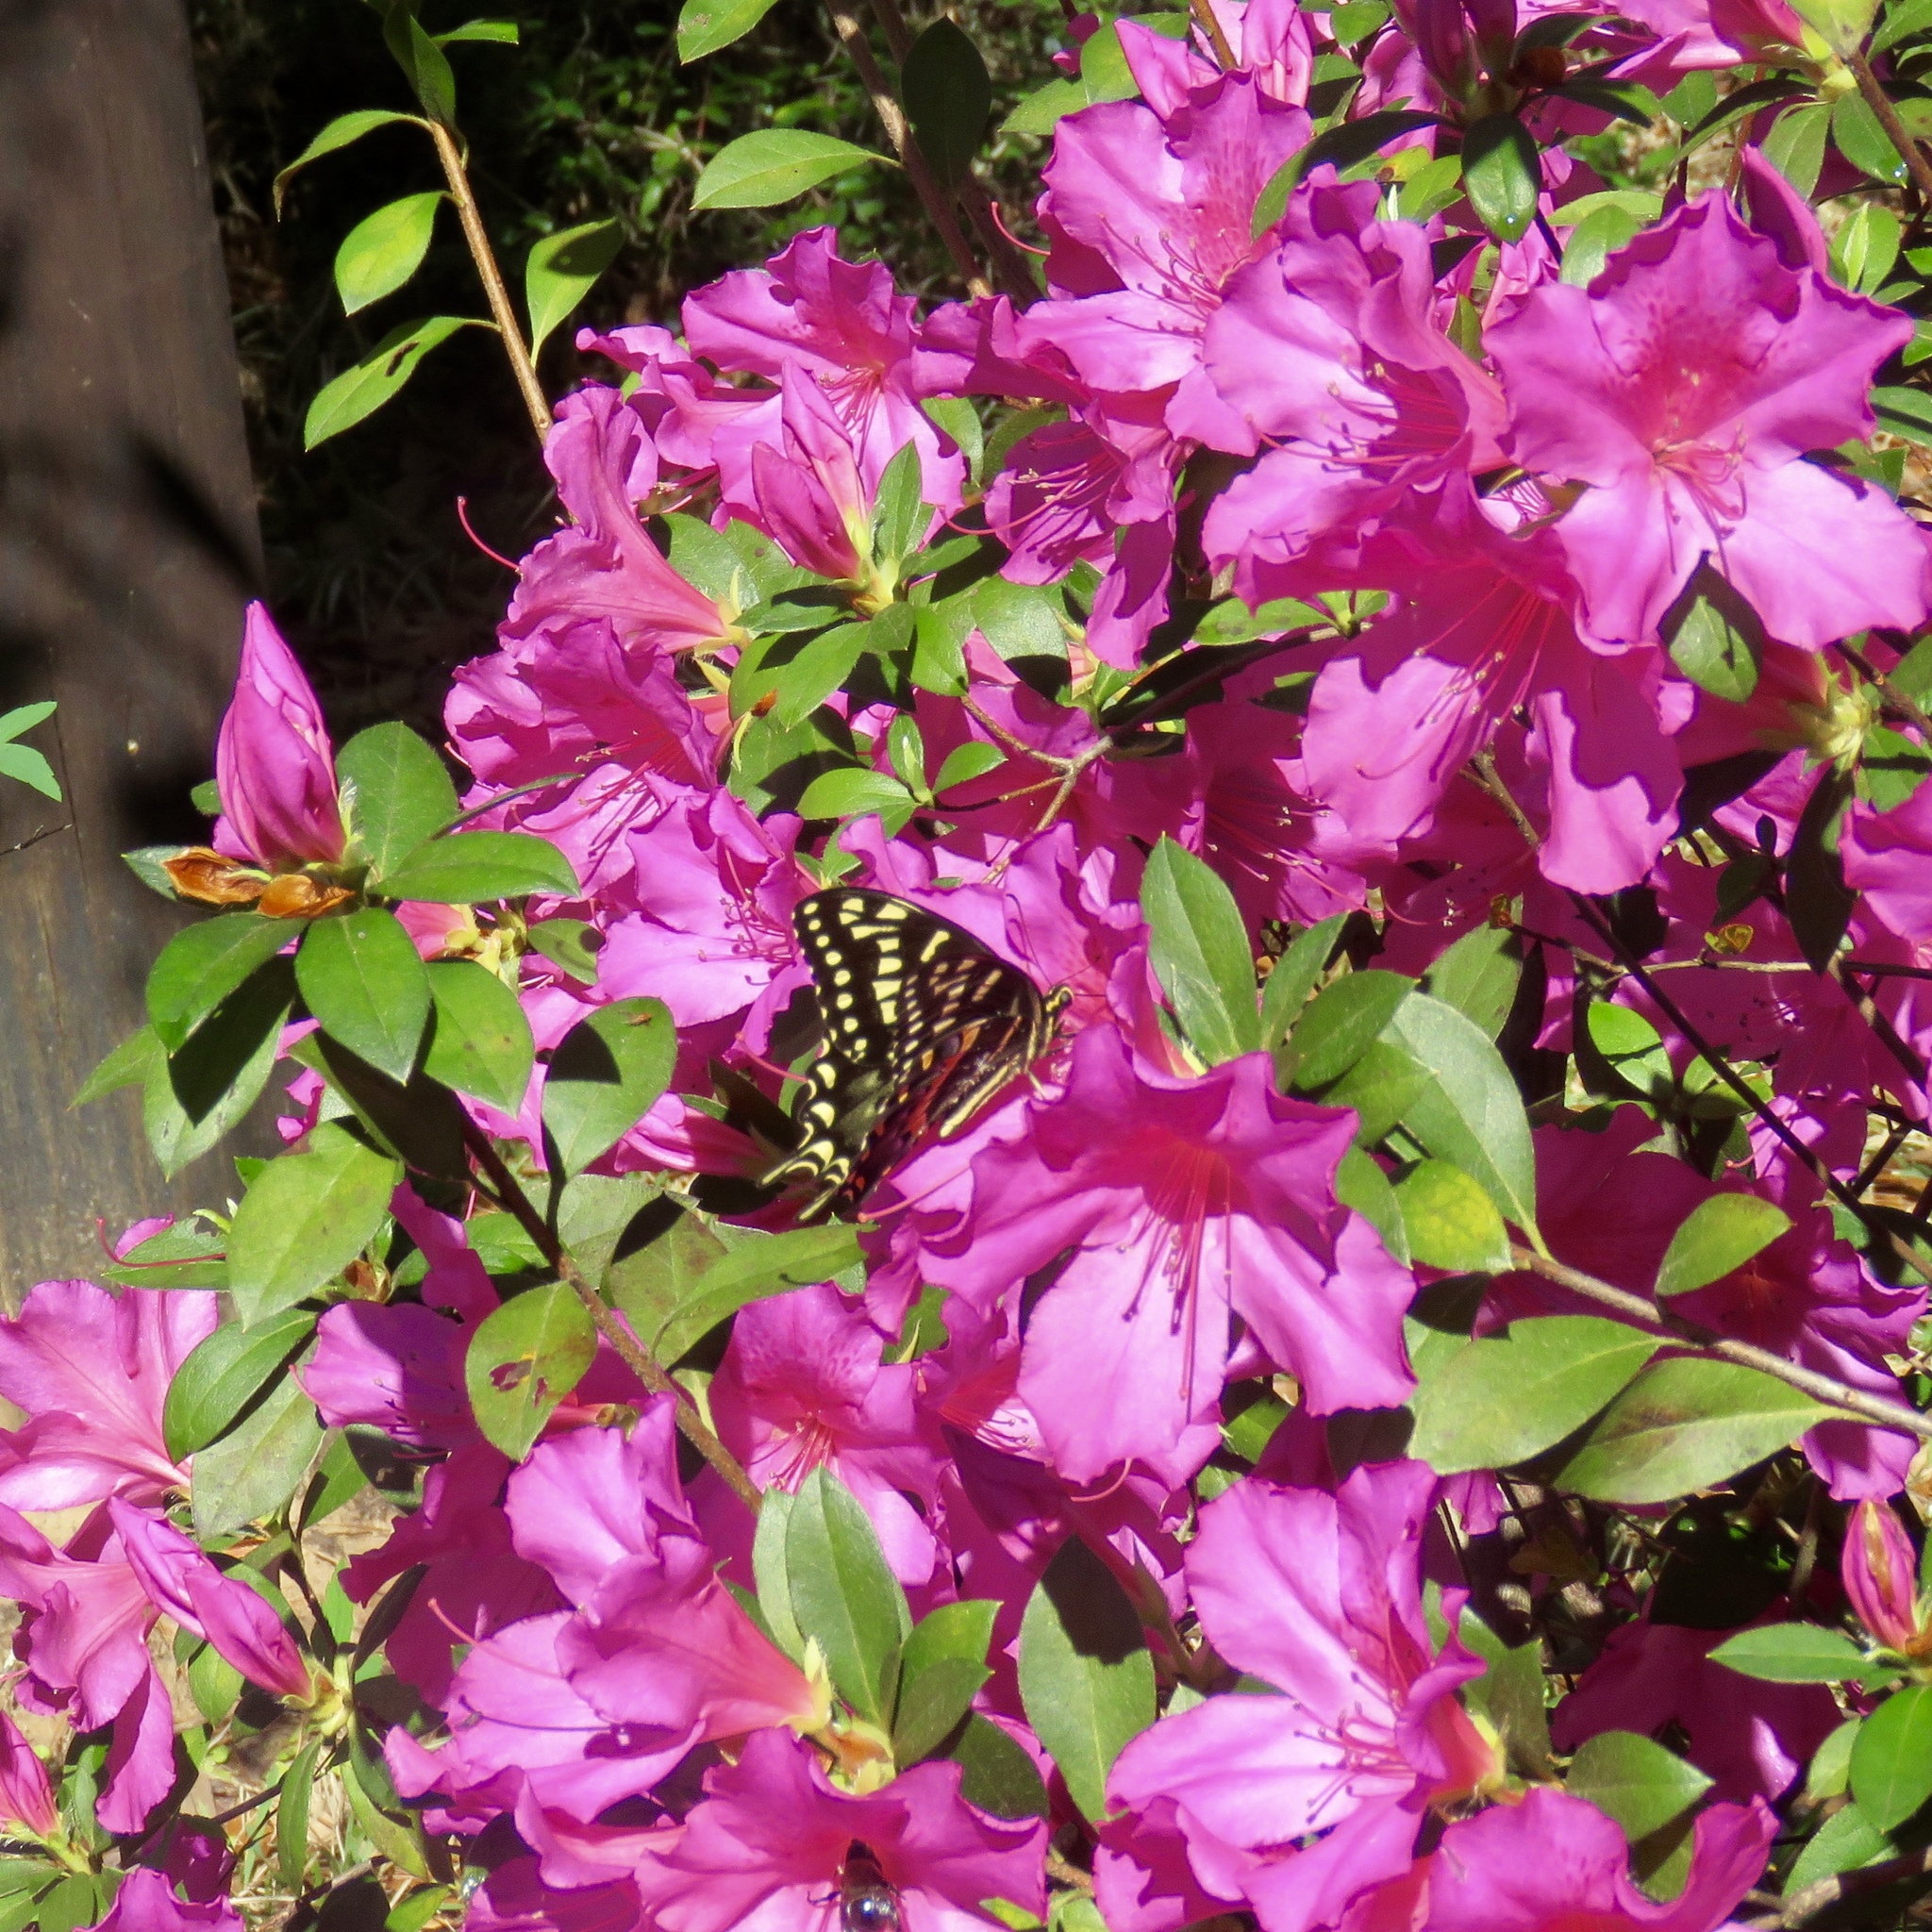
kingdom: Animalia
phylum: Arthropoda
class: Insecta
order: Lepidoptera
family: Papilionidae
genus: Papilio
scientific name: Papilio palamedes
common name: Palamedes swallowtail
